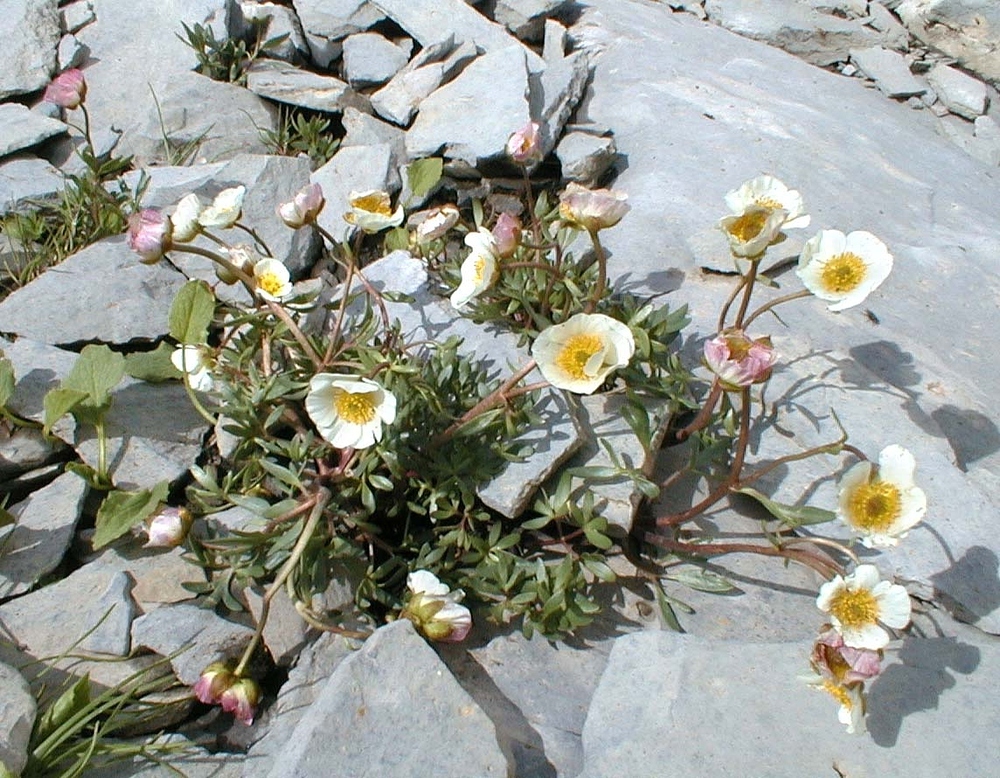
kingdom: Plantae
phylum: Tracheophyta
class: Magnoliopsida
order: Ranunculales
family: Ranunculaceae
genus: Ranunculus
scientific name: Ranunculus glacialis
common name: Glacier buttercup
